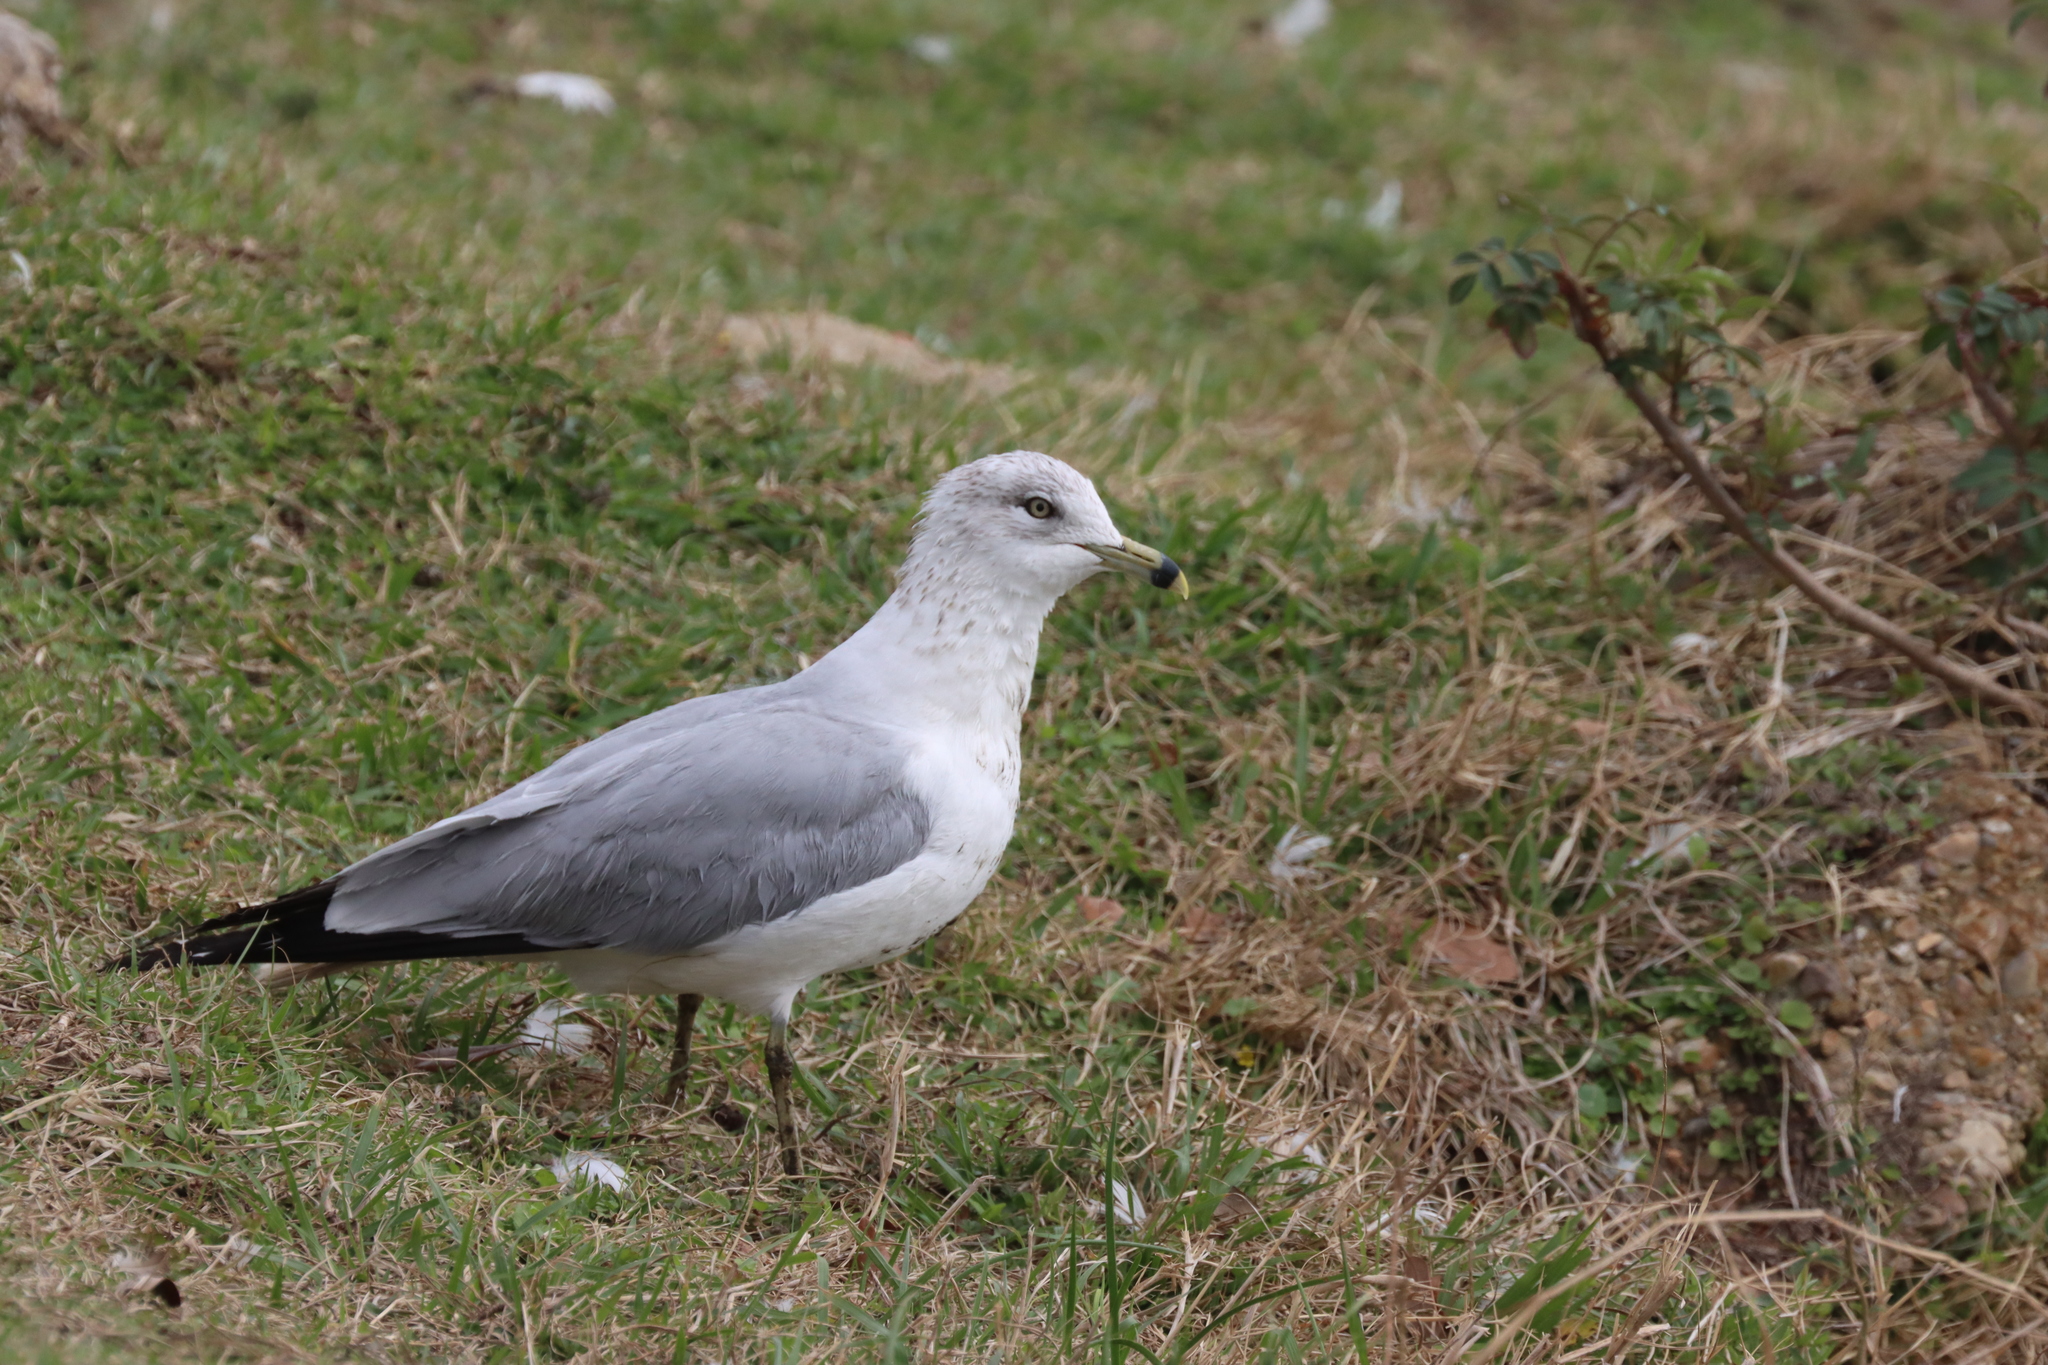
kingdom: Animalia
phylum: Chordata
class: Aves
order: Charadriiformes
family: Laridae
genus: Larus
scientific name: Larus delawarensis
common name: Ring-billed gull
